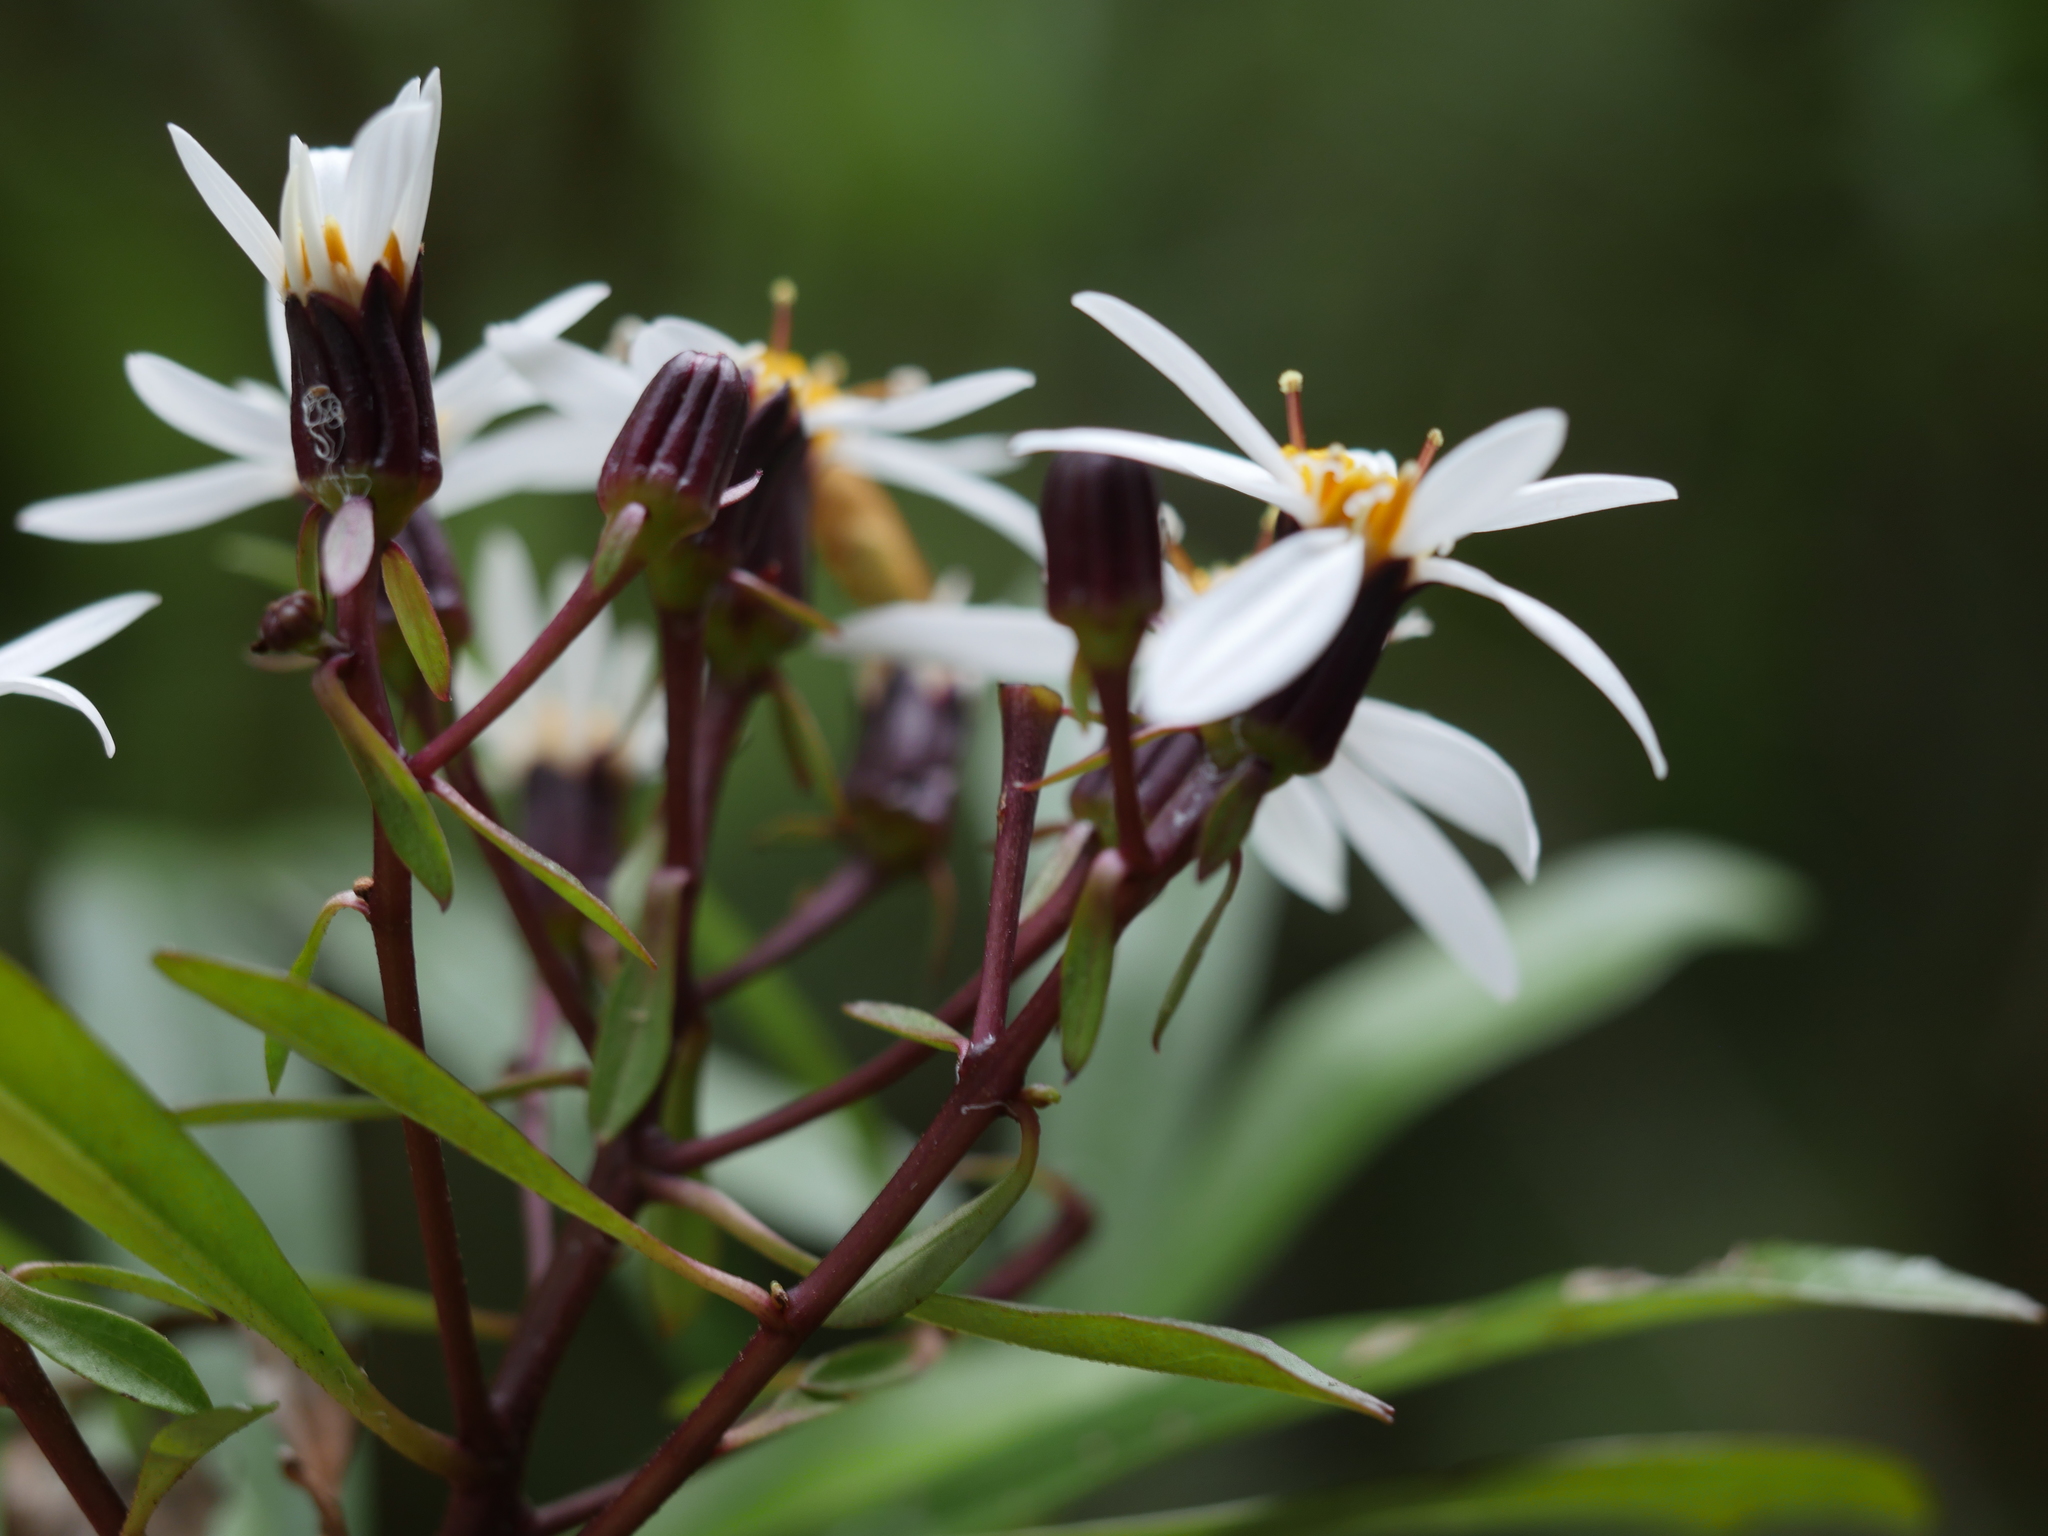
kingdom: Plantae
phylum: Tracheophyta
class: Magnoliopsida
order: Asterales
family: Asteraceae
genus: Brachyglottis
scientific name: Brachyglottis kirkii
